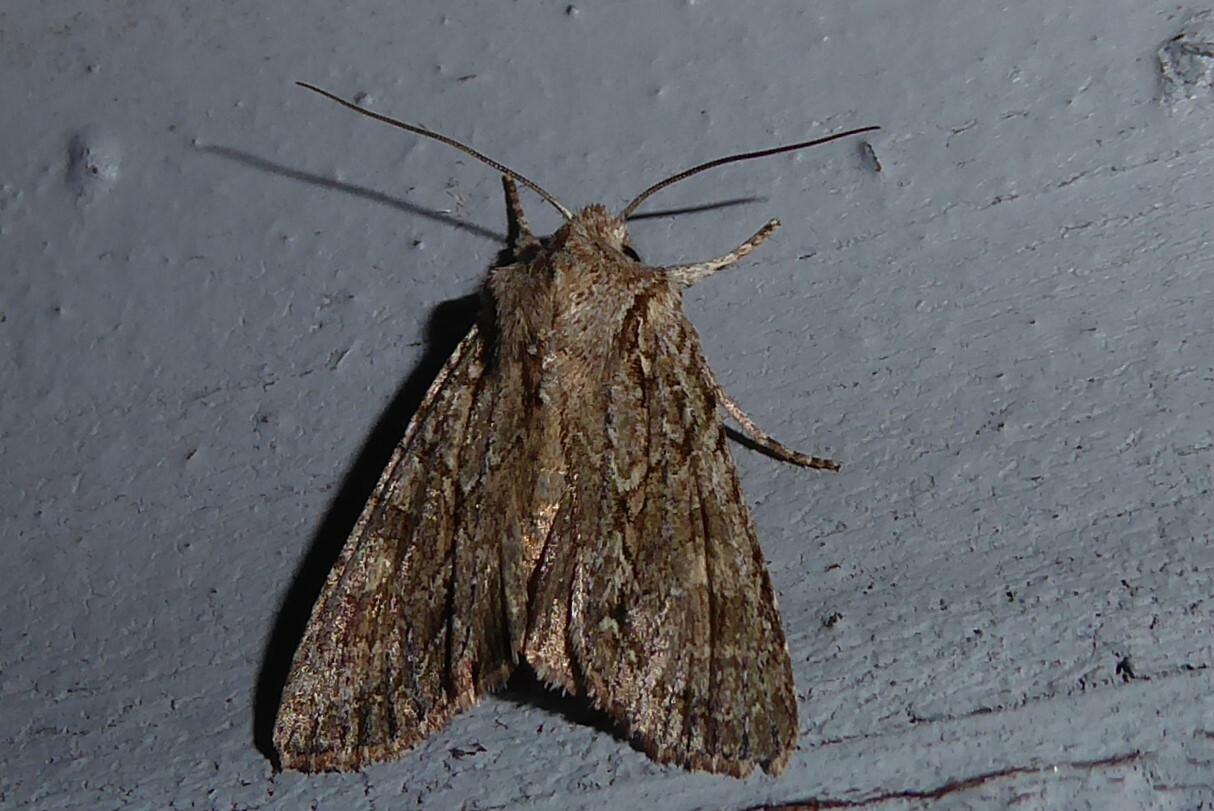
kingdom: Animalia
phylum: Arthropoda
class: Insecta
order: Lepidoptera
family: Noctuidae
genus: Ichneutica
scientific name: Ichneutica mutans
